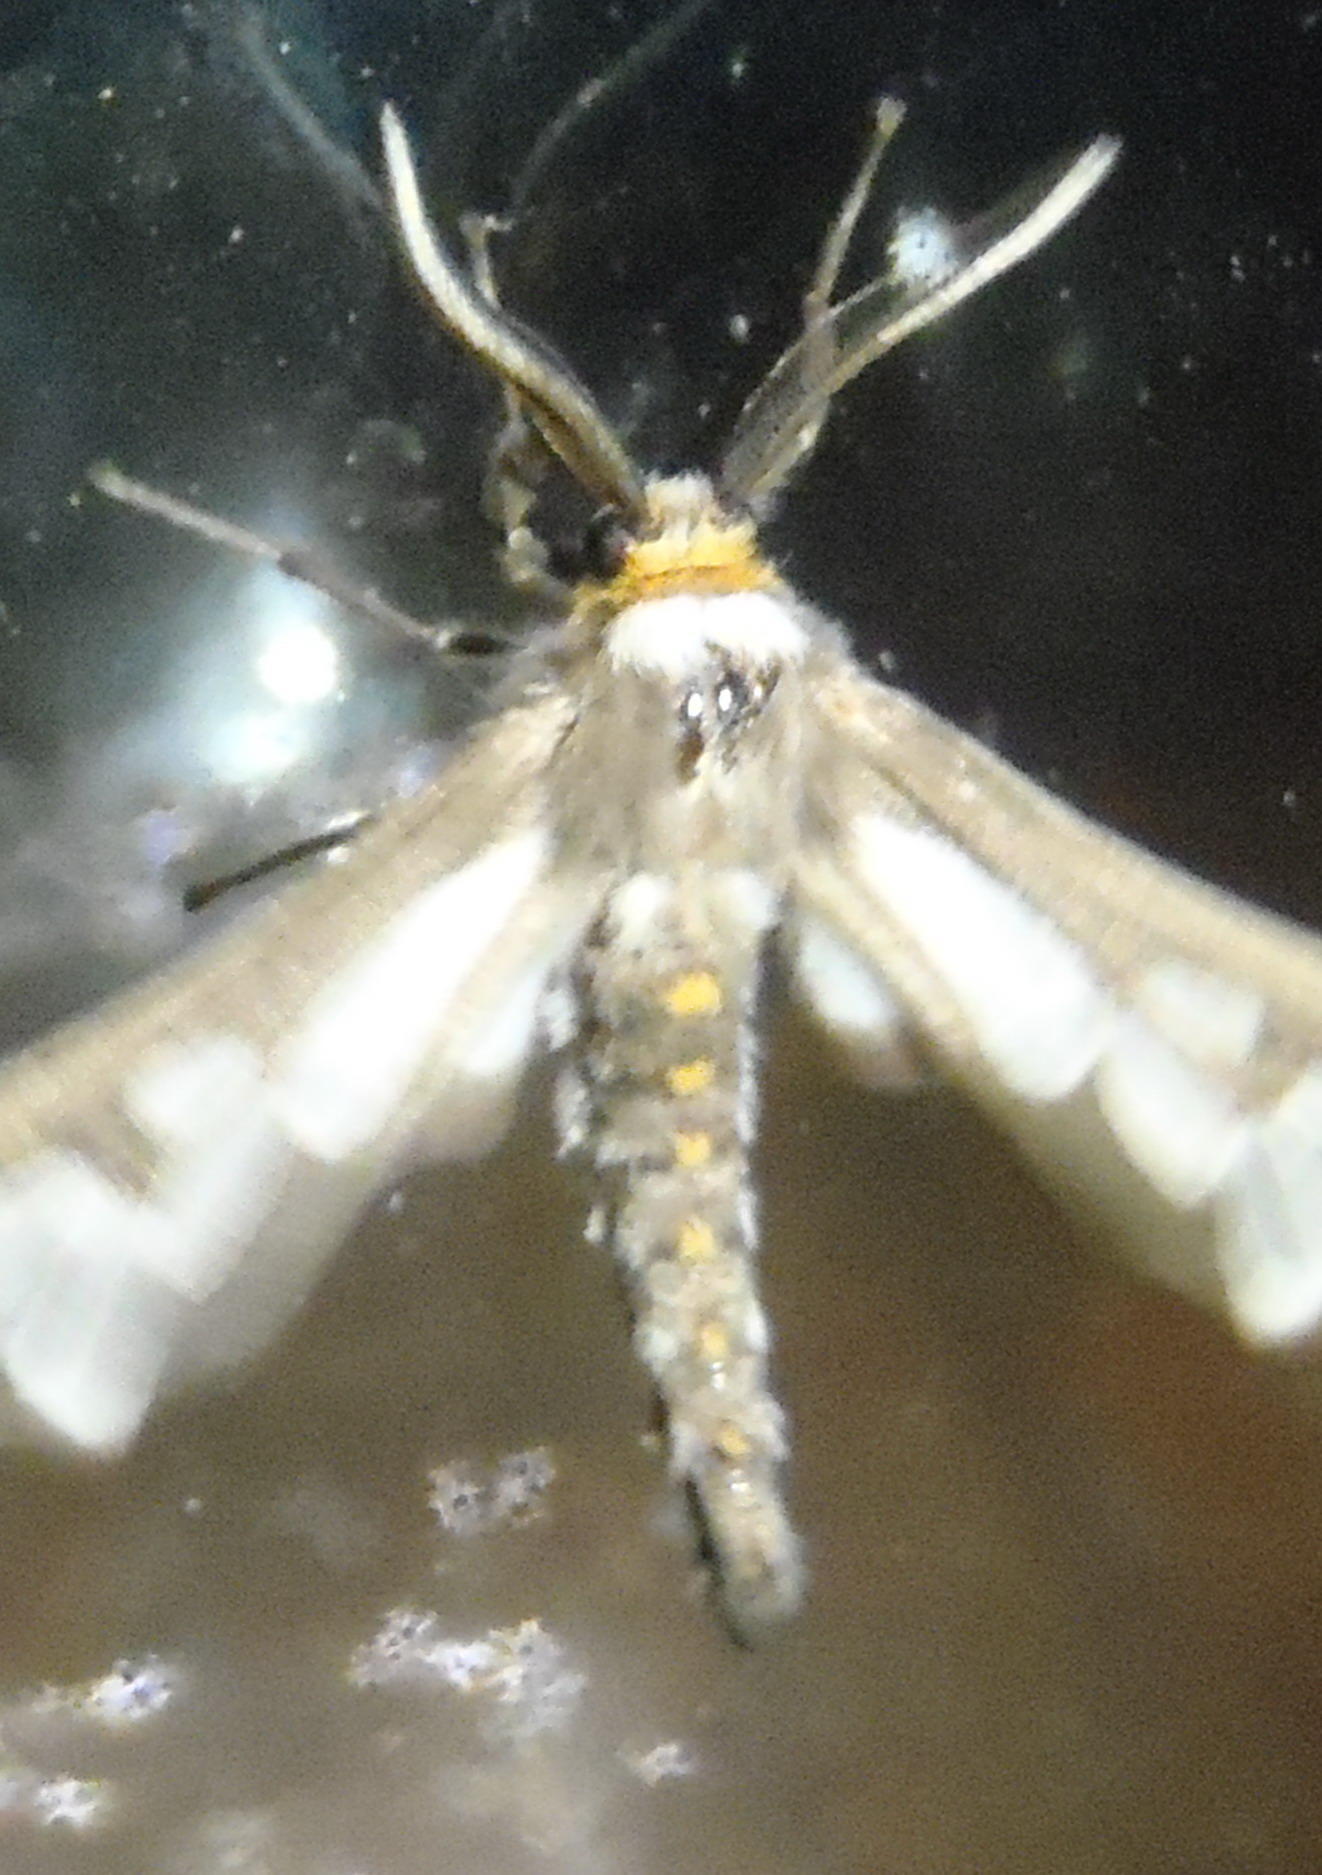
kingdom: Animalia
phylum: Arthropoda
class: Insecta
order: Lepidoptera
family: Erebidae
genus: Thyretes
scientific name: Thyretes caffra
